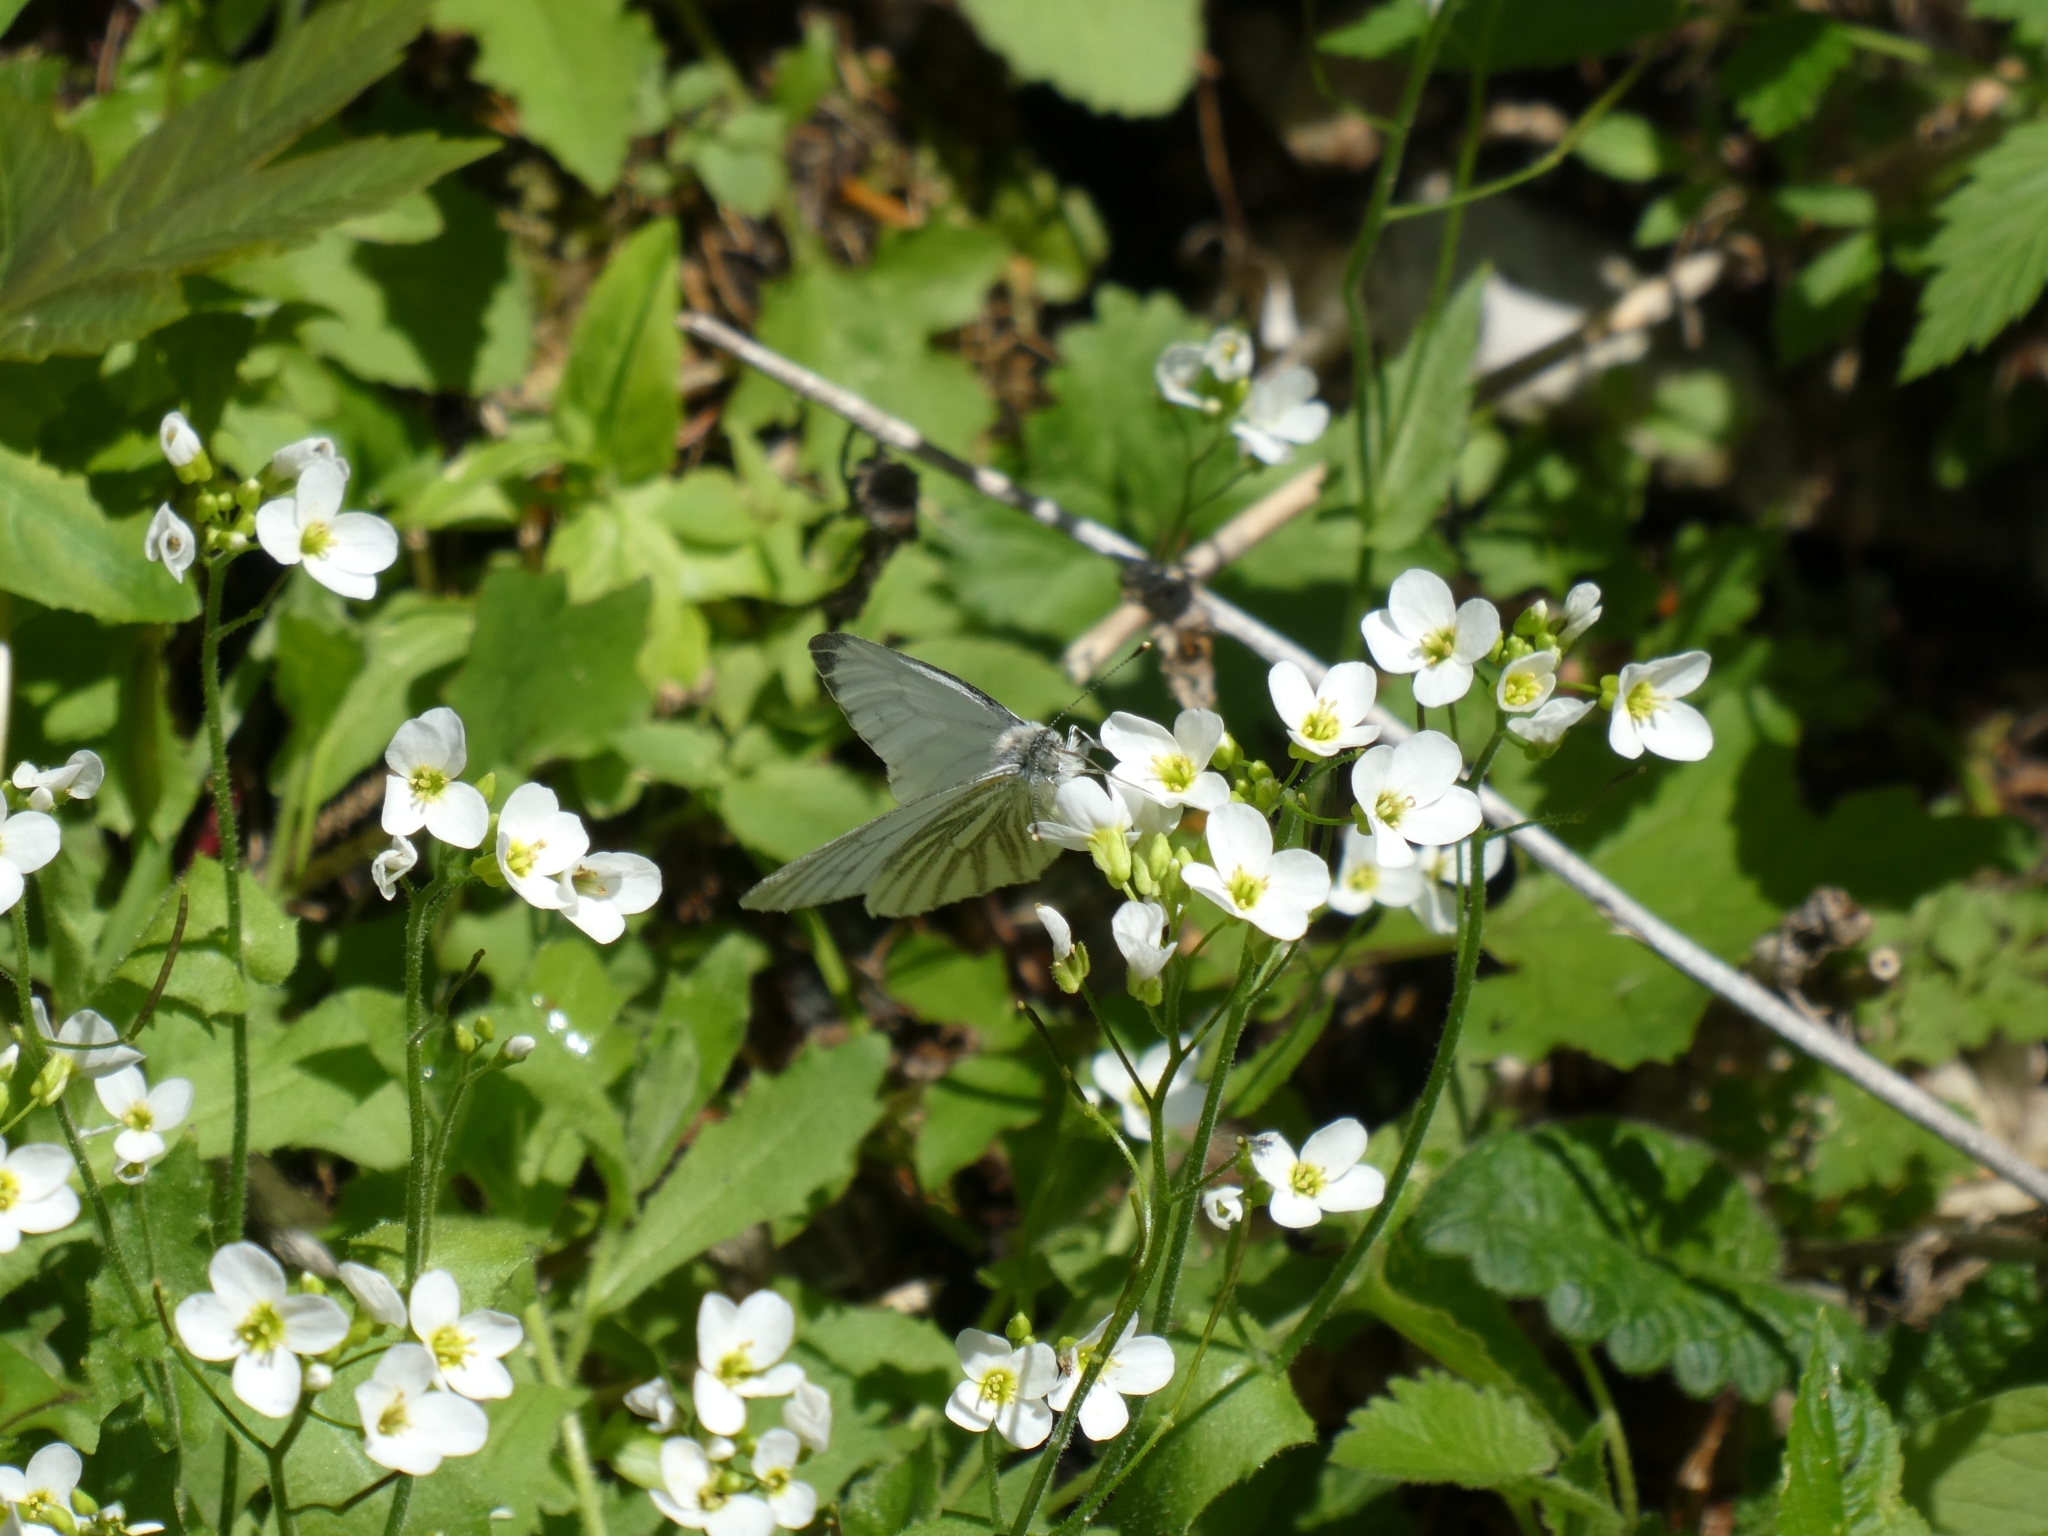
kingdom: Animalia
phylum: Arthropoda
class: Insecta
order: Lepidoptera
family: Pieridae
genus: Pieris
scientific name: Pieris napi
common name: Green-veined white
